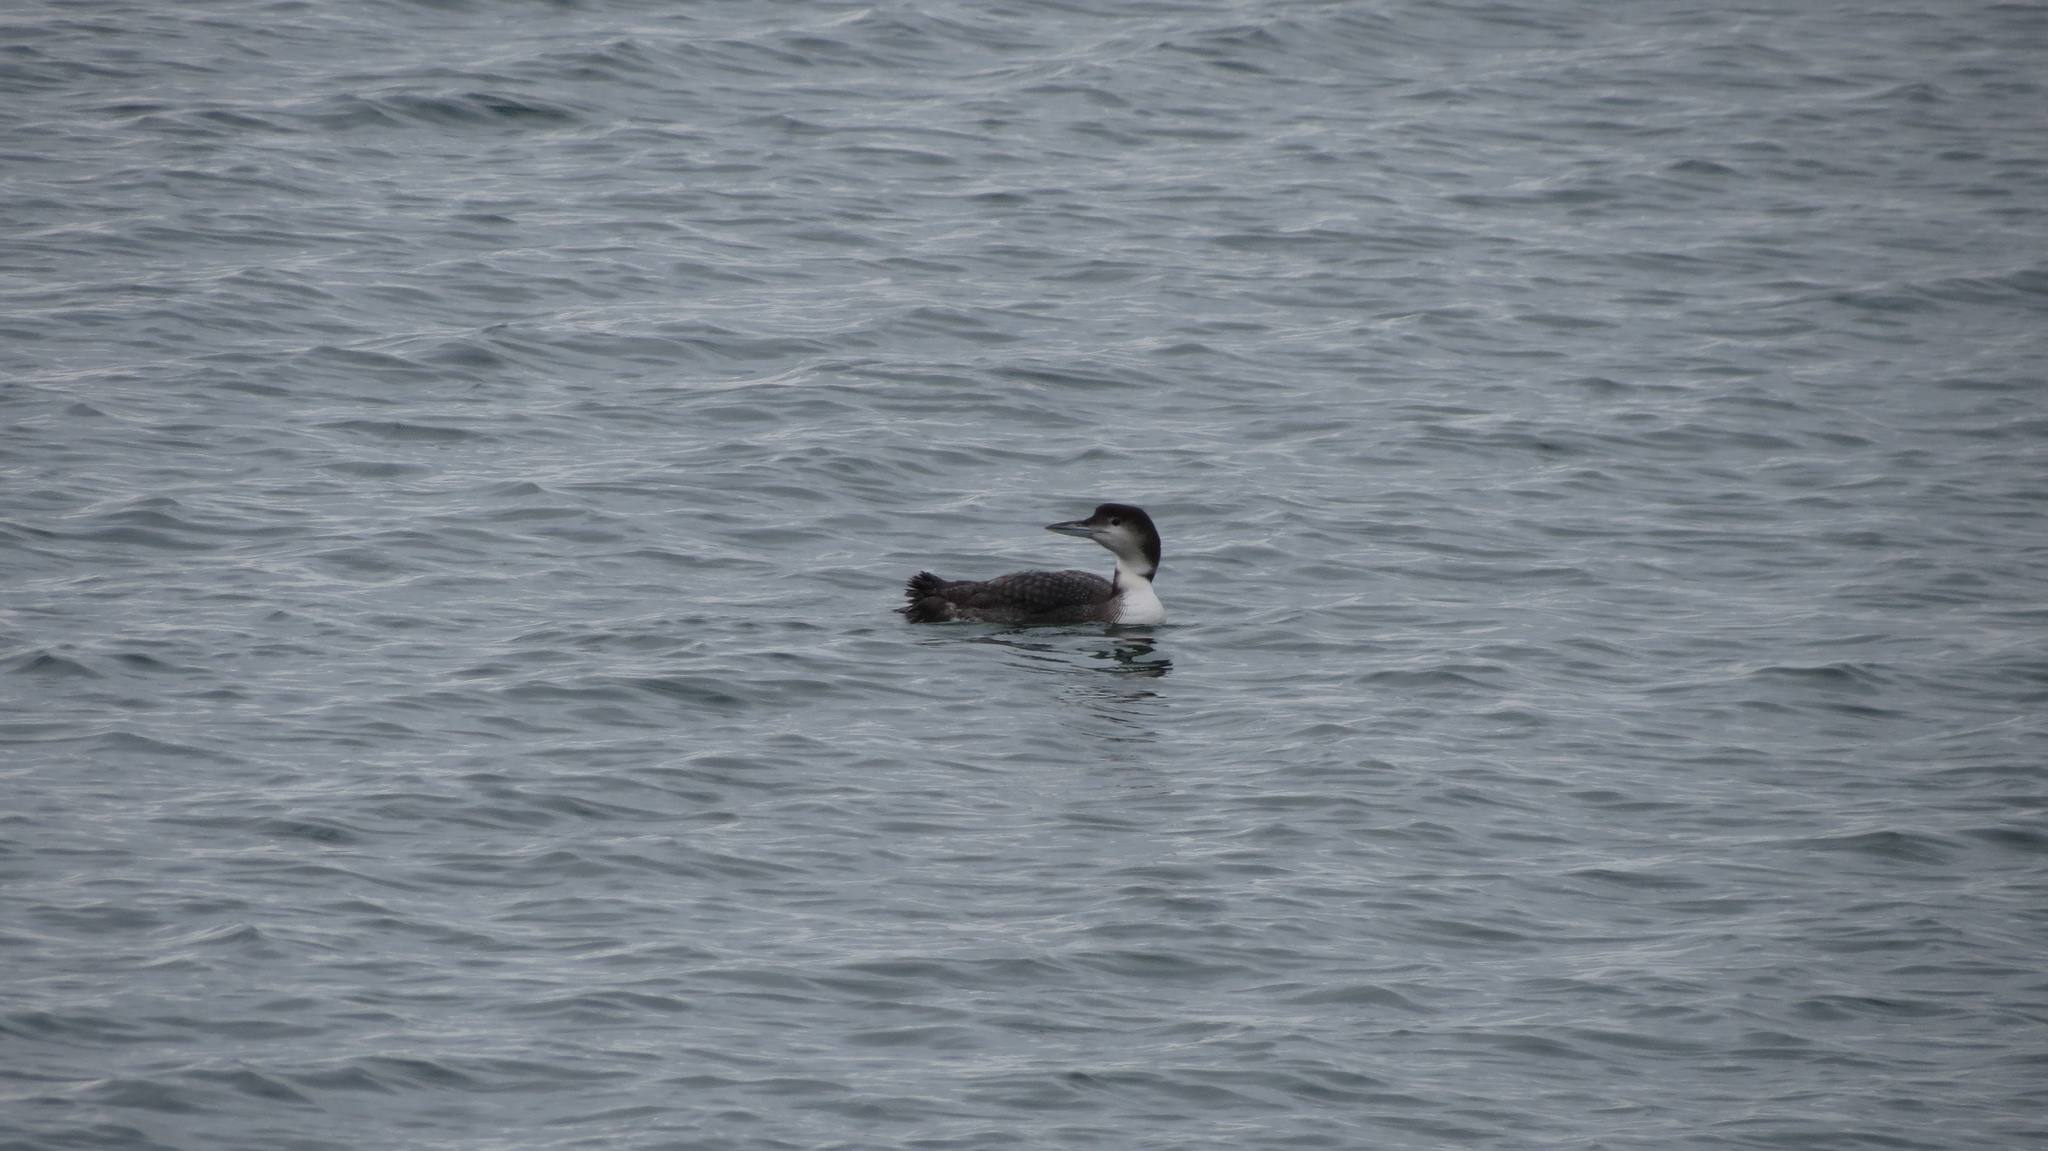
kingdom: Animalia
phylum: Chordata
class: Aves
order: Gaviiformes
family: Gaviidae
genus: Gavia
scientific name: Gavia immer
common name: Common loon
